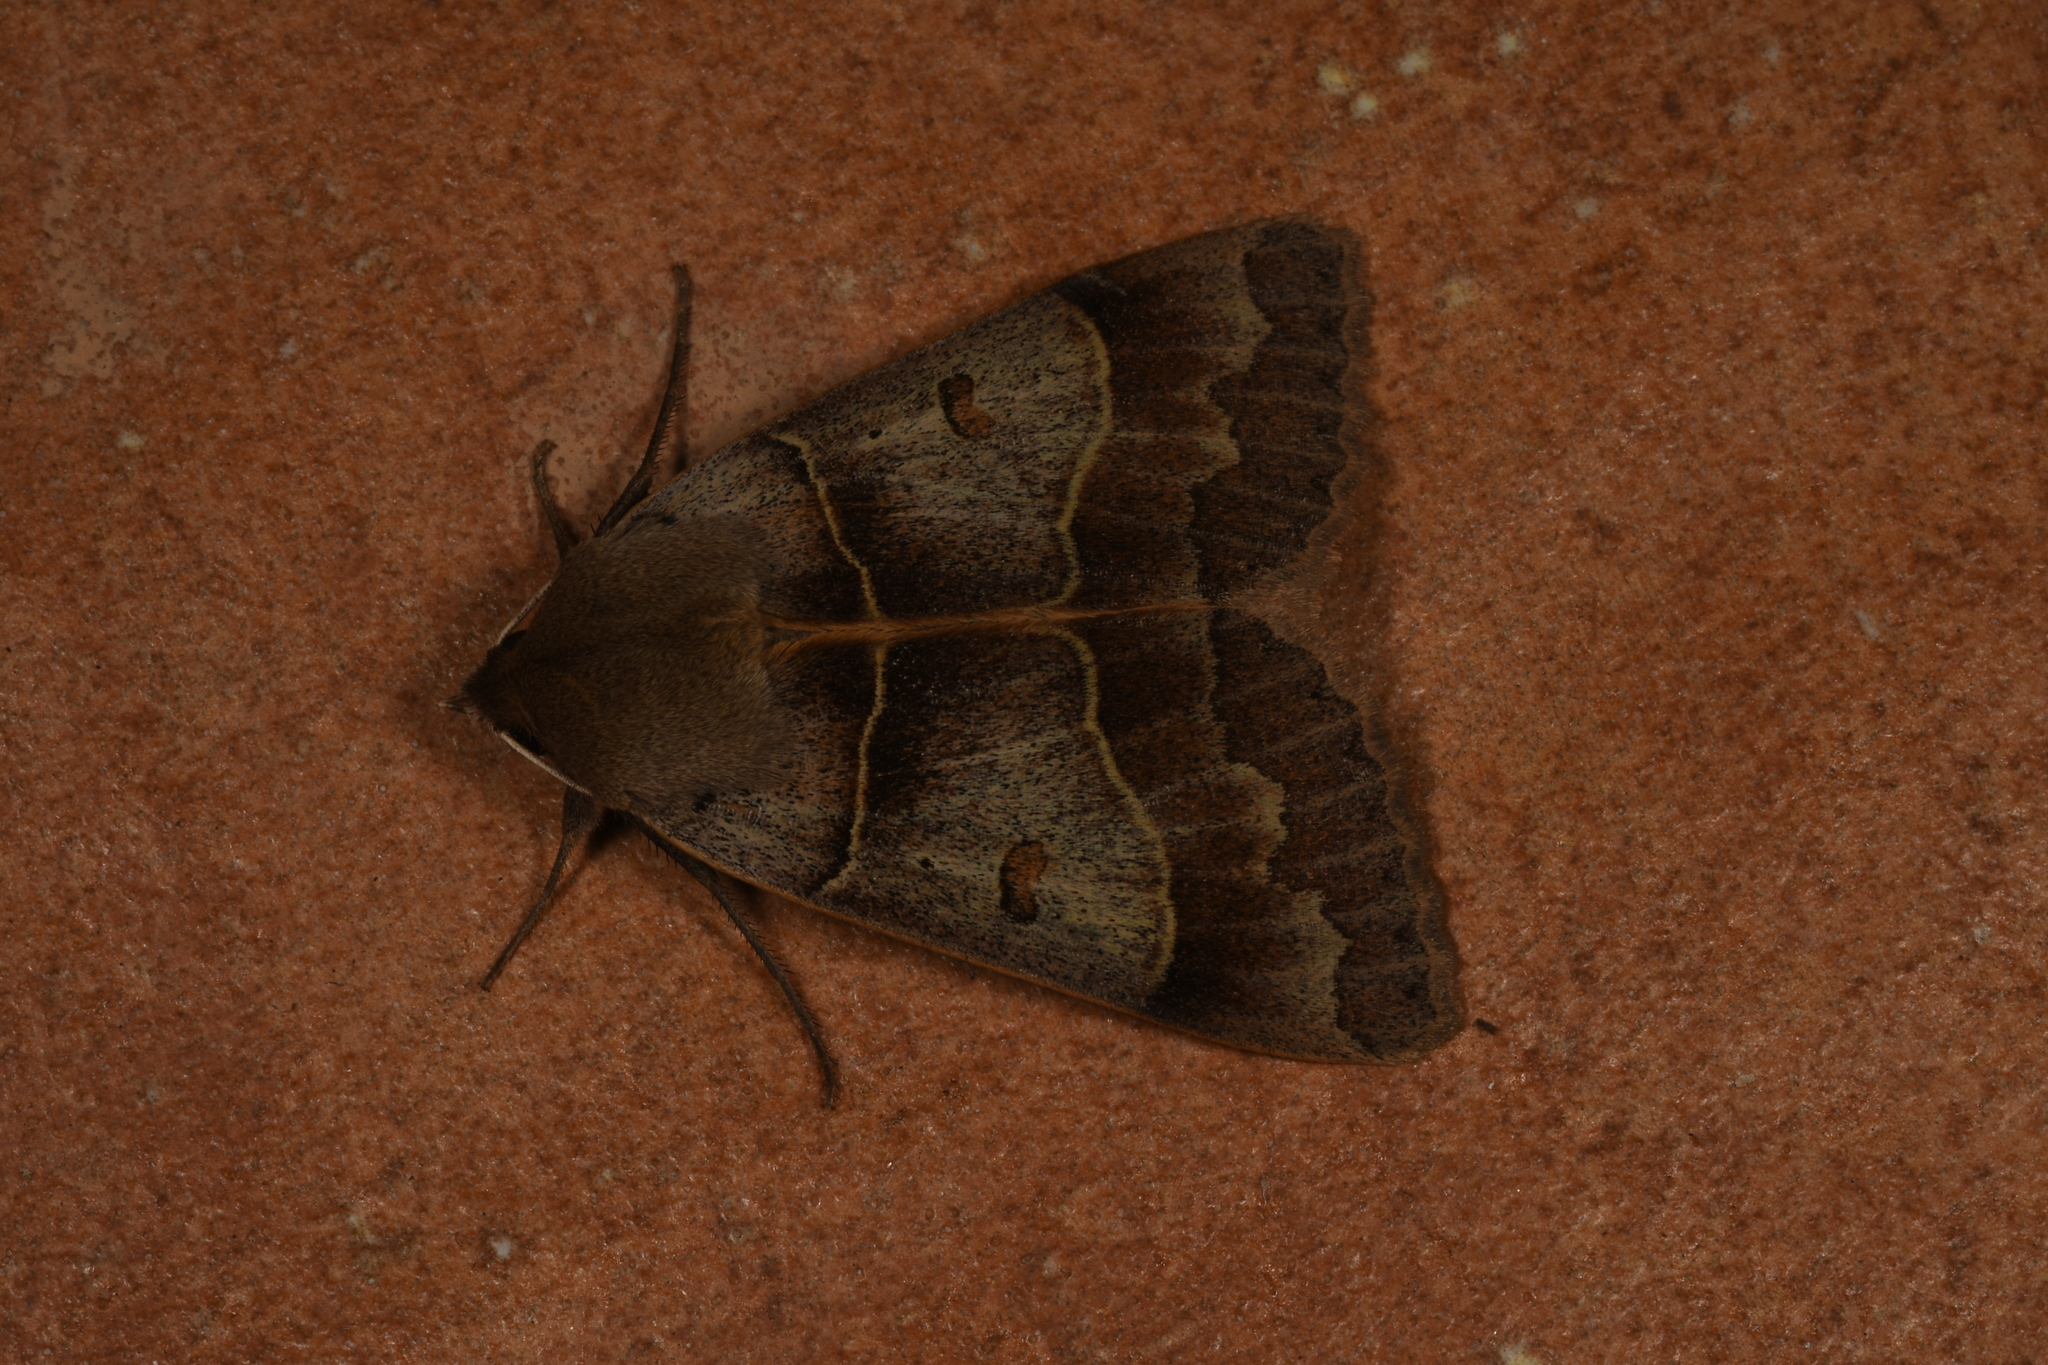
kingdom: Animalia
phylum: Arthropoda
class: Insecta
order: Lepidoptera
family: Erebidae
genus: Minucia
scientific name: Minucia lunaris
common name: Lunar double-stripe
